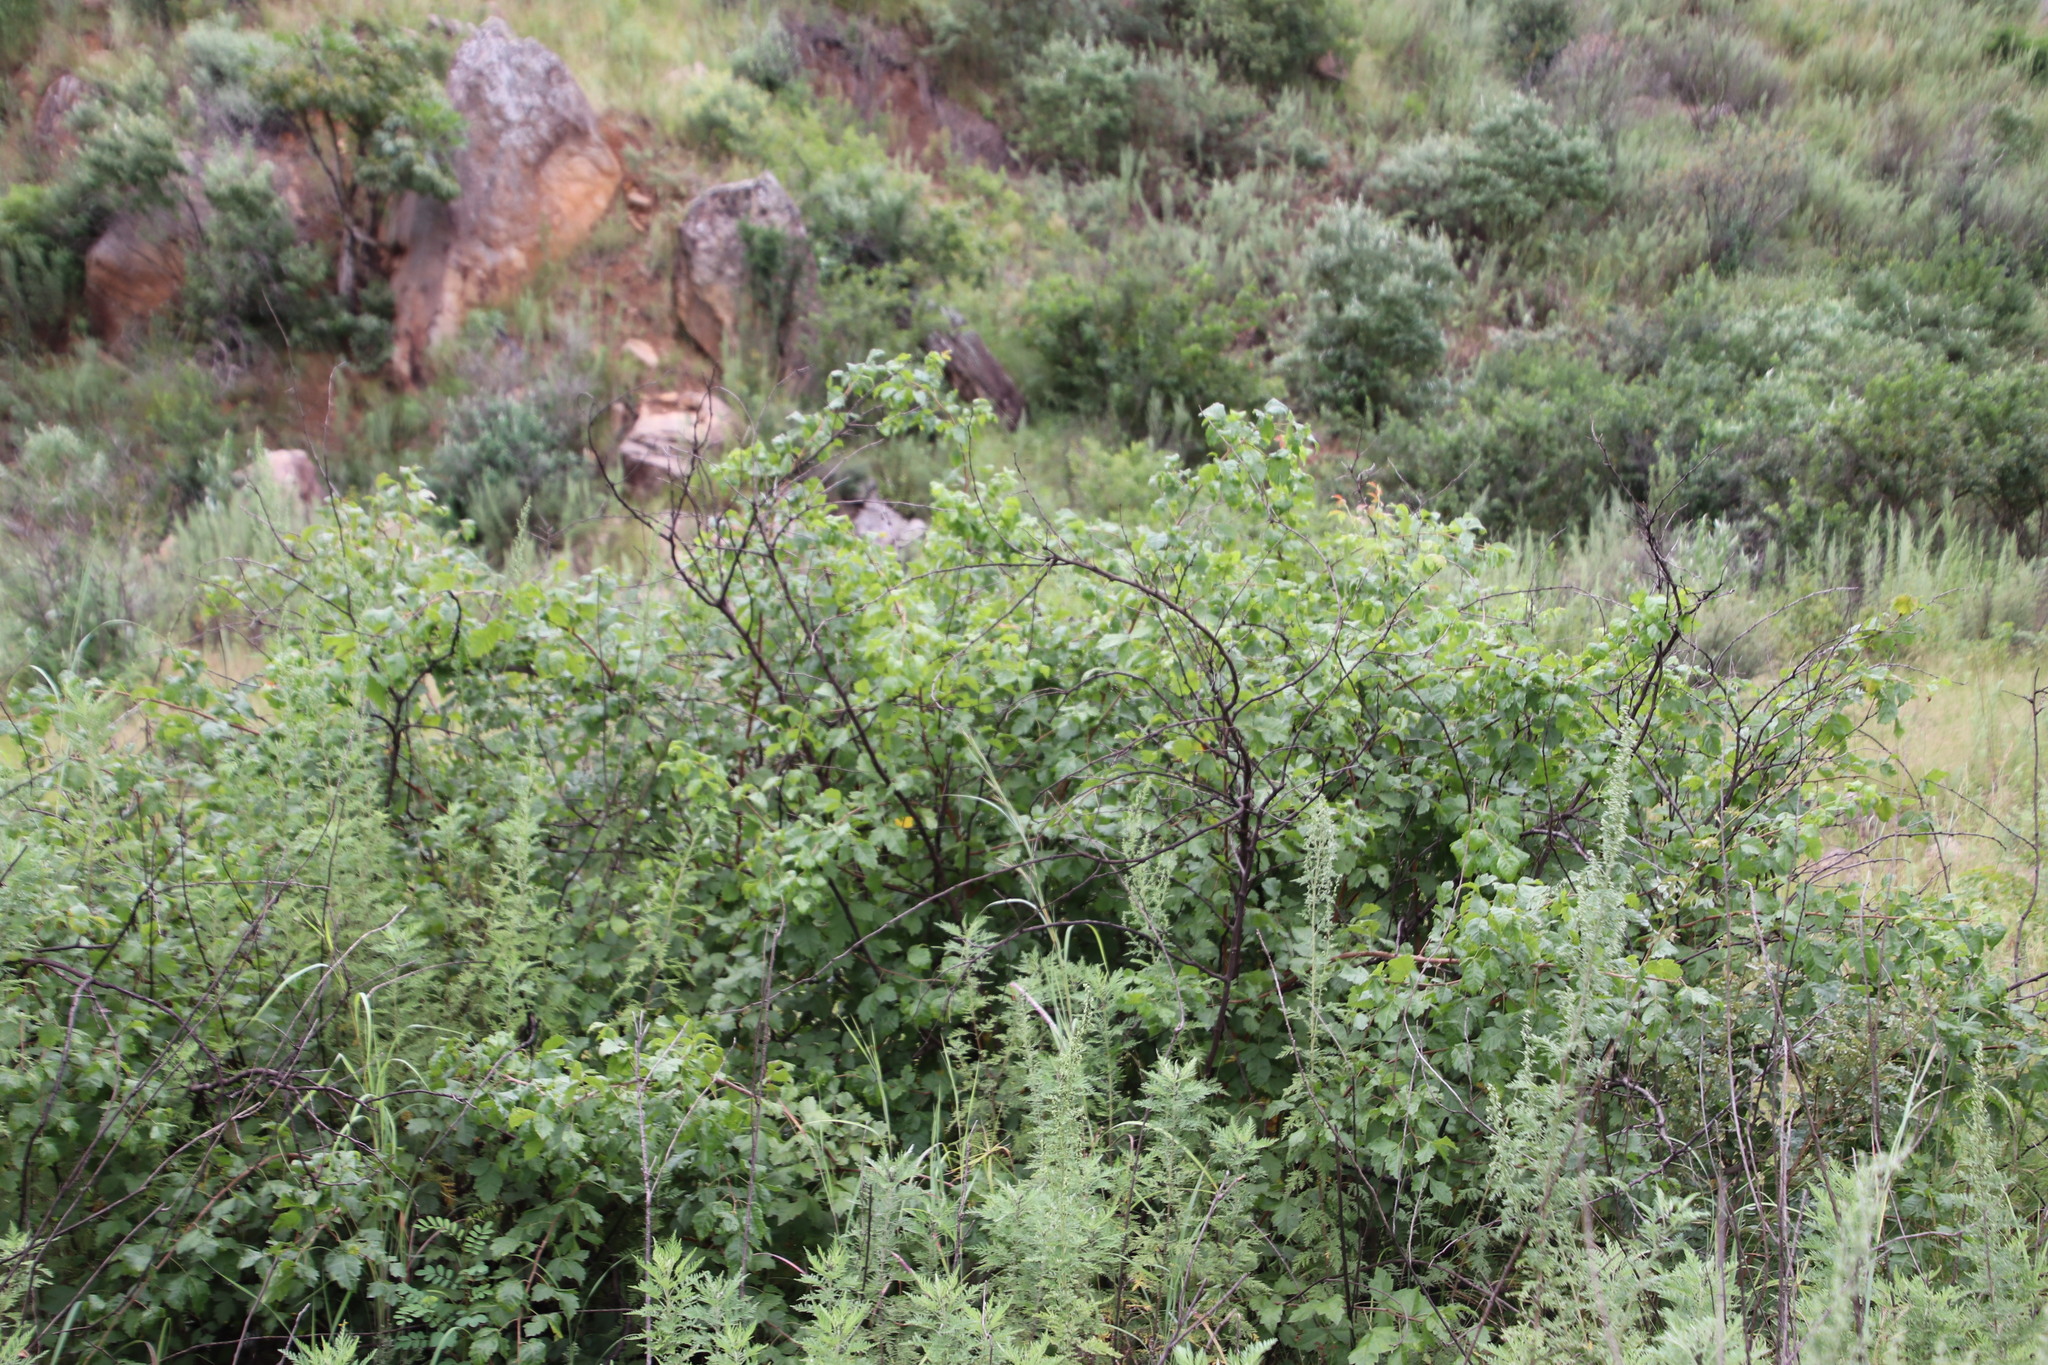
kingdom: Plantae
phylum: Tracheophyta
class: Magnoliopsida
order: Sapindales
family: Anacardiaceae
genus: Searsia
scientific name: Searsia dentata
